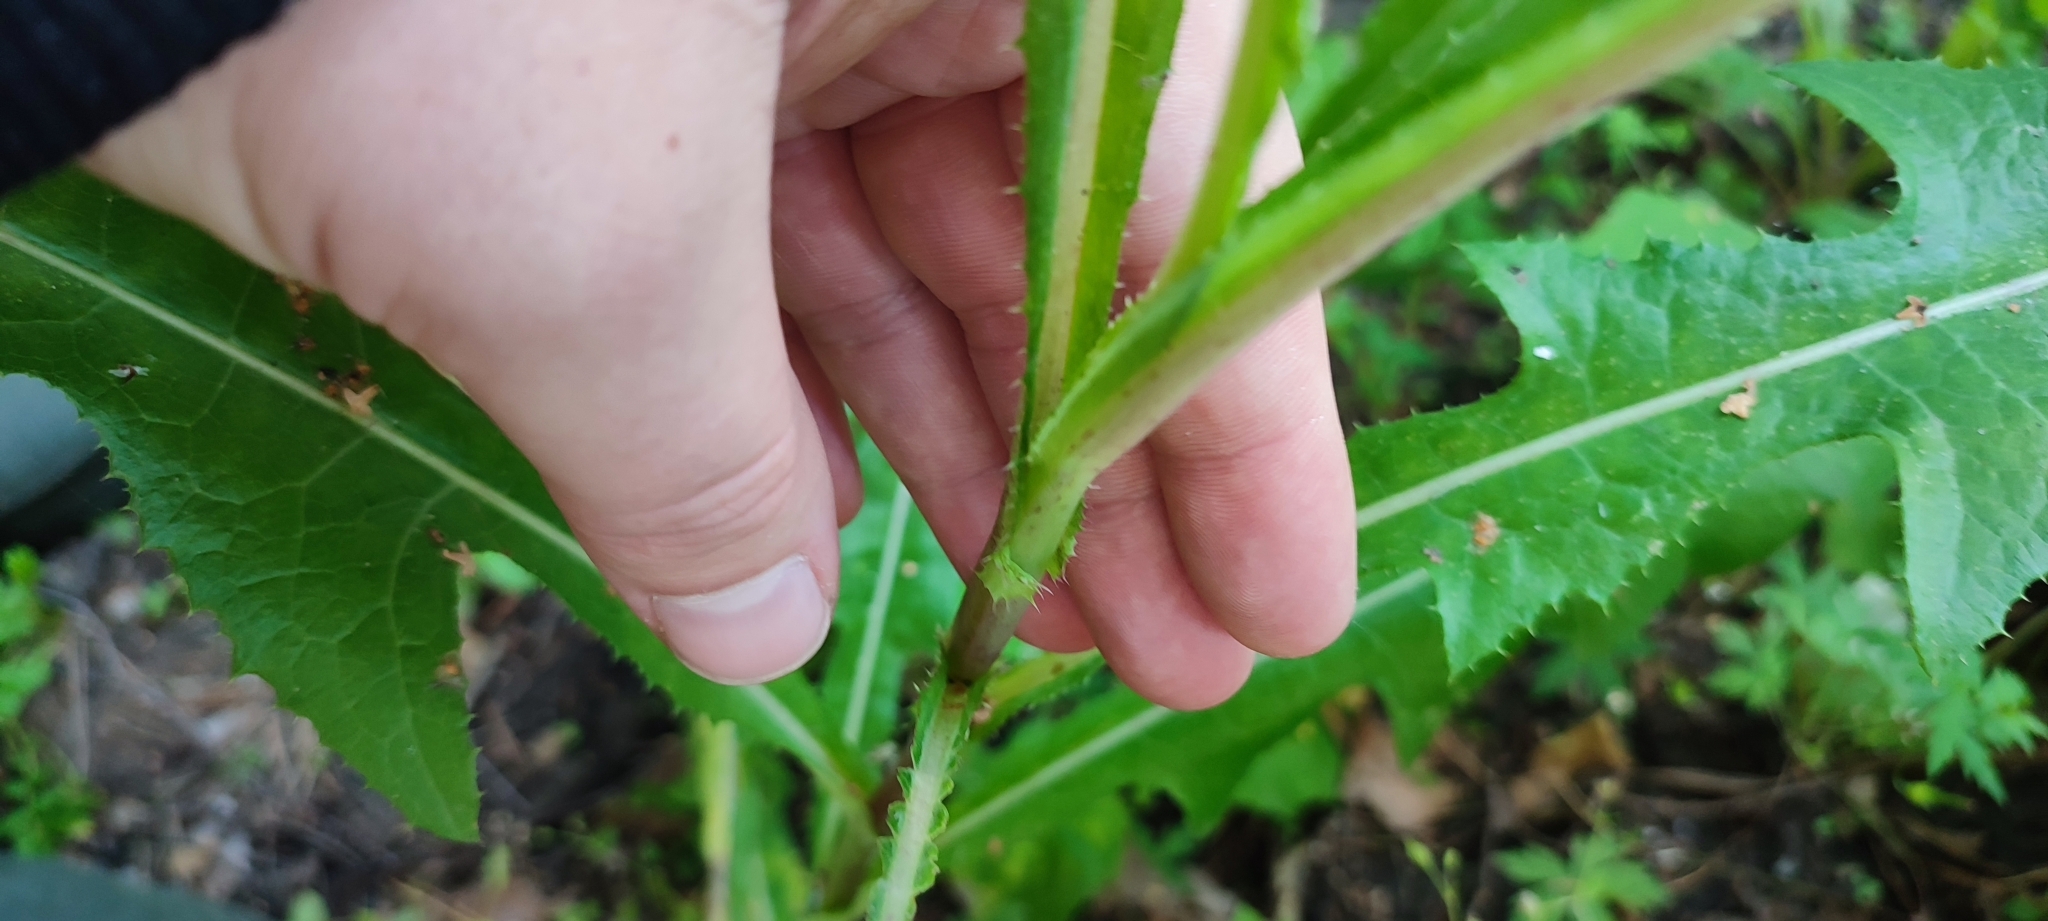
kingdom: Plantae
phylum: Tracheophyta
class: Magnoliopsida
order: Asterales
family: Asteraceae
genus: Sonchus
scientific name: Sonchus arvensis
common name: Perennial sow-thistle
